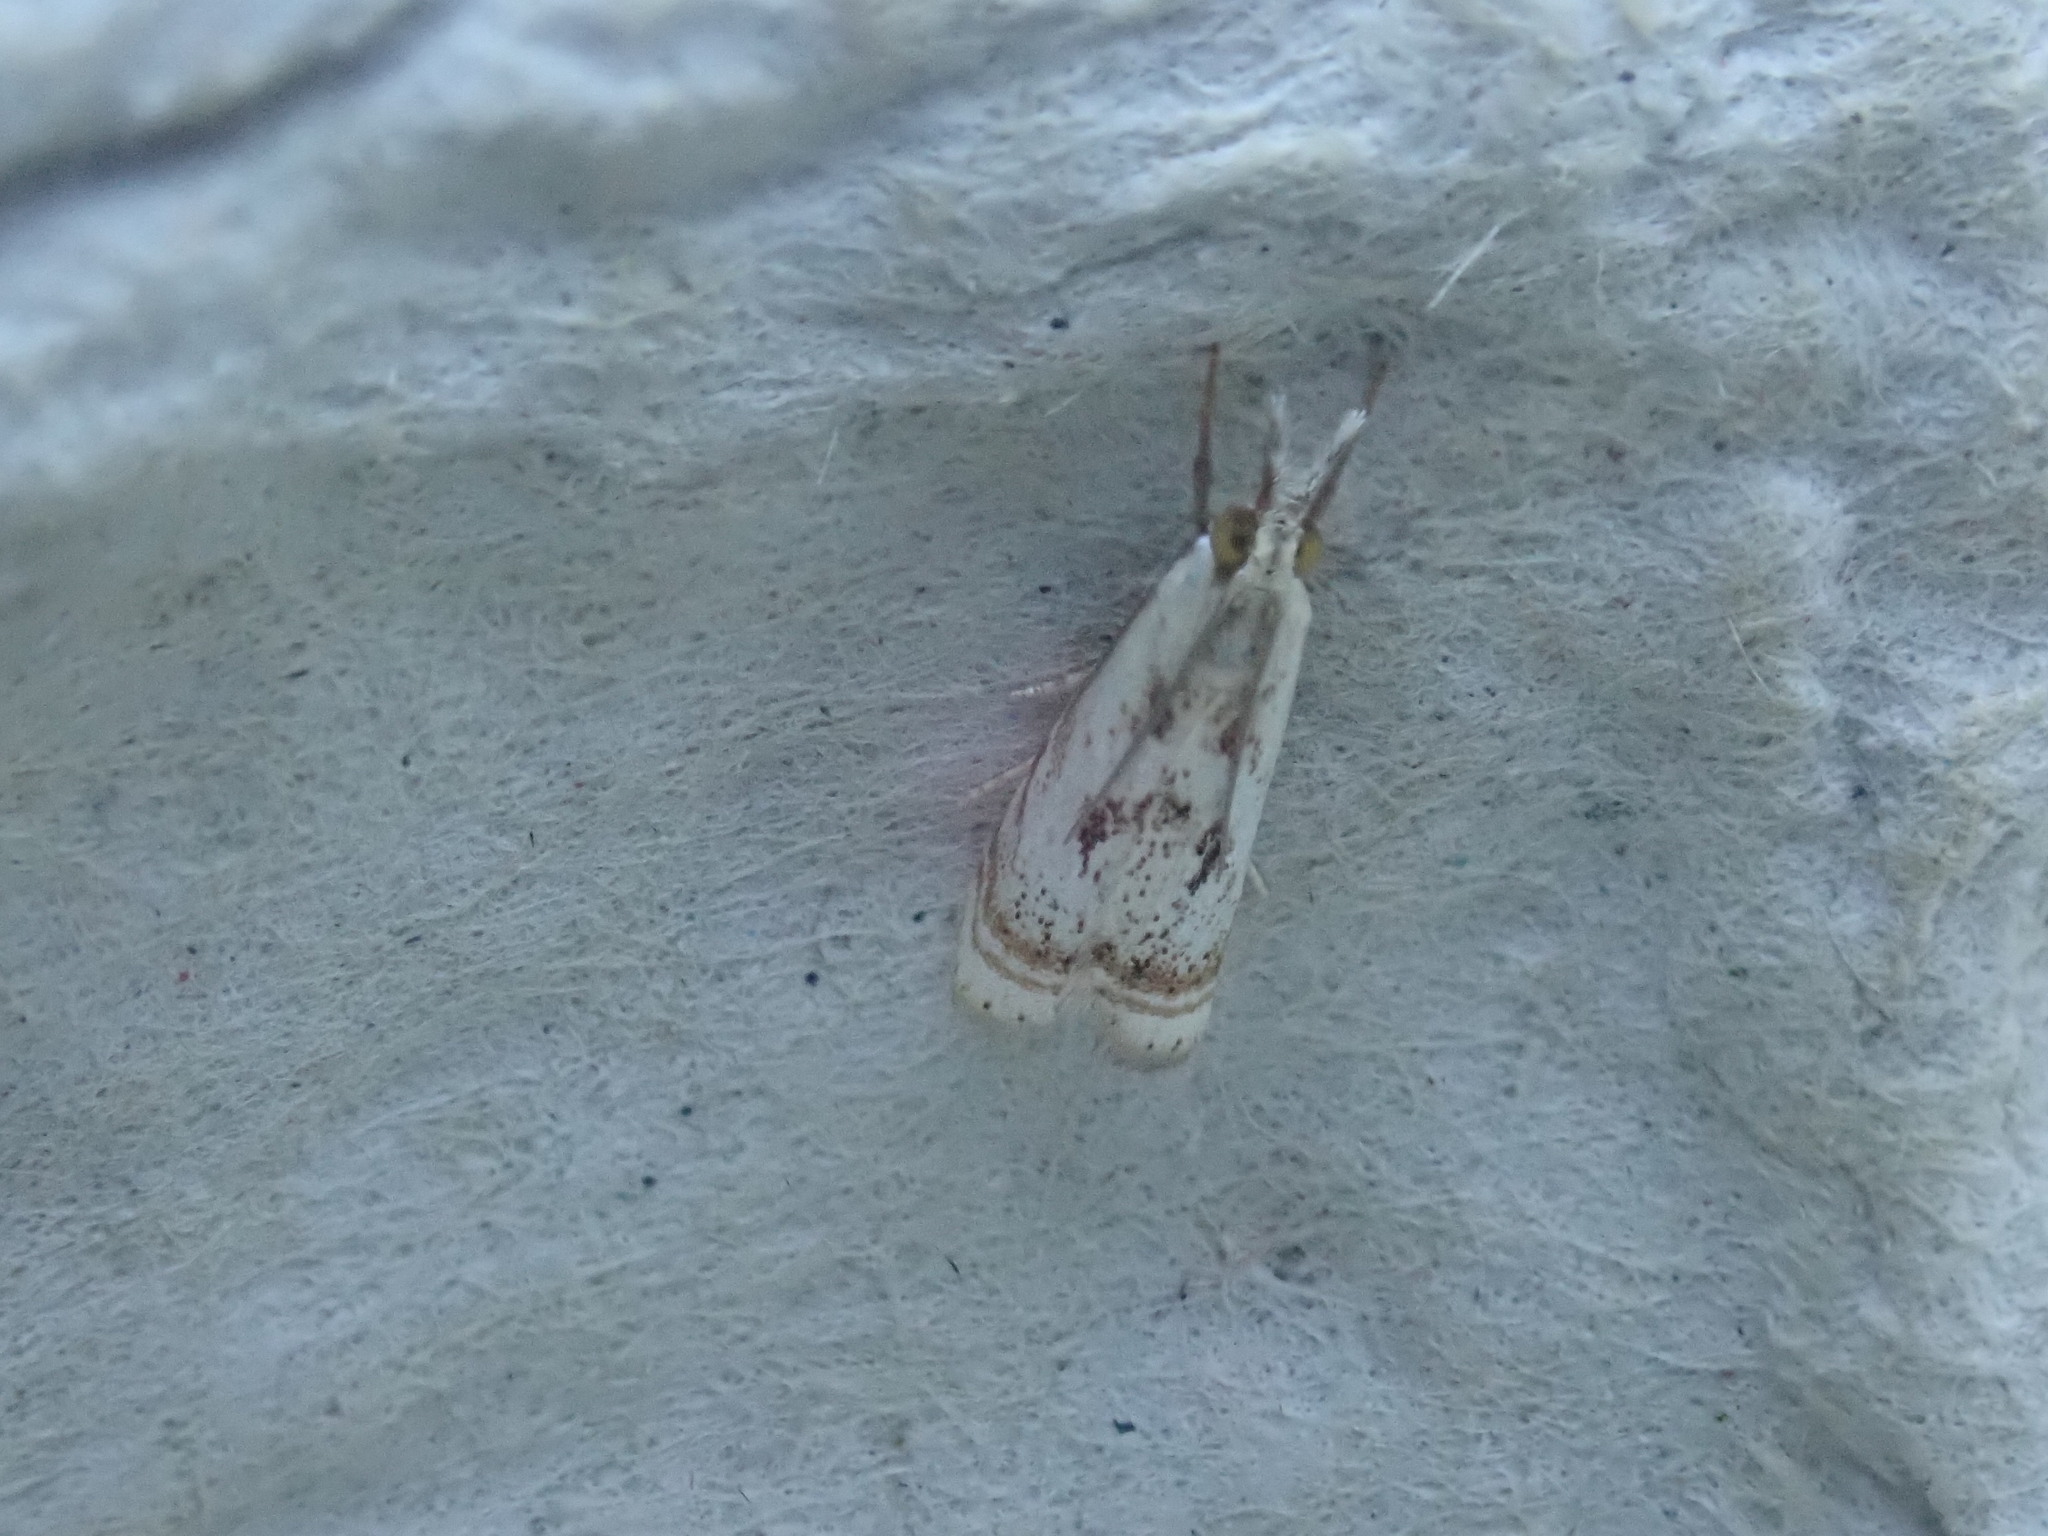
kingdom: Animalia
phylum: Arthropoda
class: Insecta
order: Lepidoptera
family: Crambidae
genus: Microcrambus
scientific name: Microcrambus elegans
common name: Elegant grass-veneer
